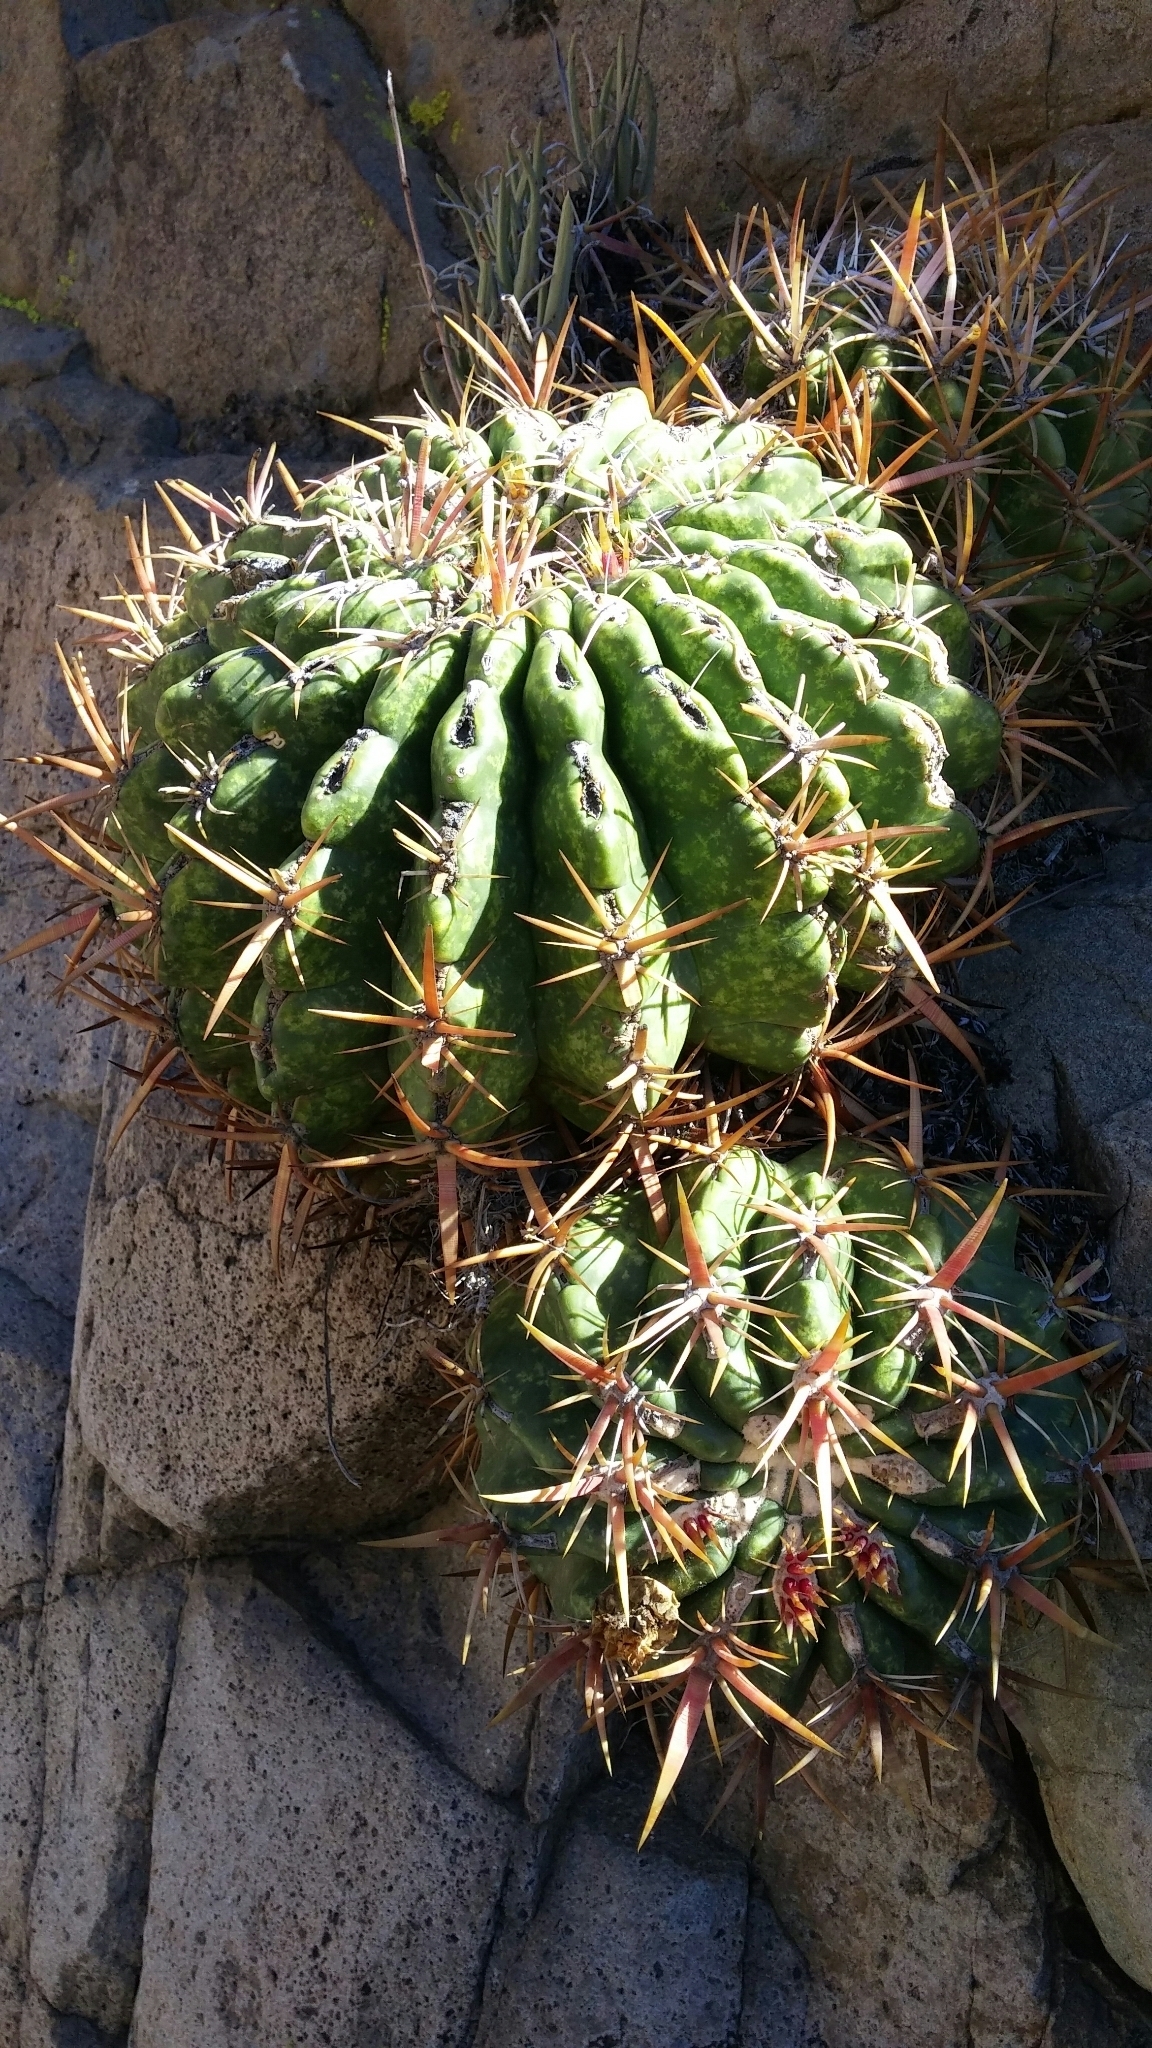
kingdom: Plantae
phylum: Tracheophyta
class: Magnoliopsida
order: Caryophyllales
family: Cactaceae
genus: Ferocactus
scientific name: Ferocactus viridescens
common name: San diego barrel cactus
